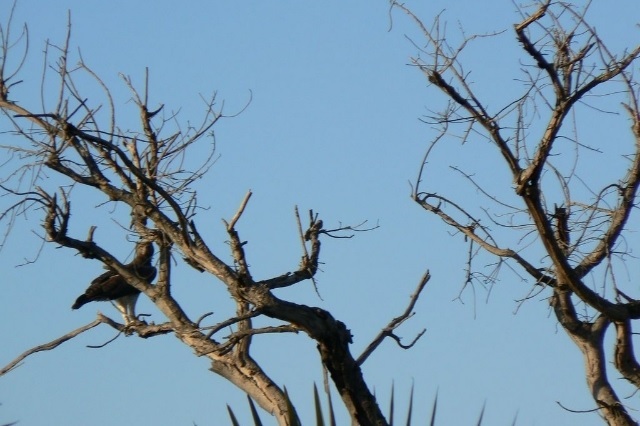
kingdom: Animalia
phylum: Chordata
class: Aves
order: Accipitriformes
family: Accipitridae
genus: Polemaetus
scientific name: Polemaetus bellicosus
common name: Martial eagle
